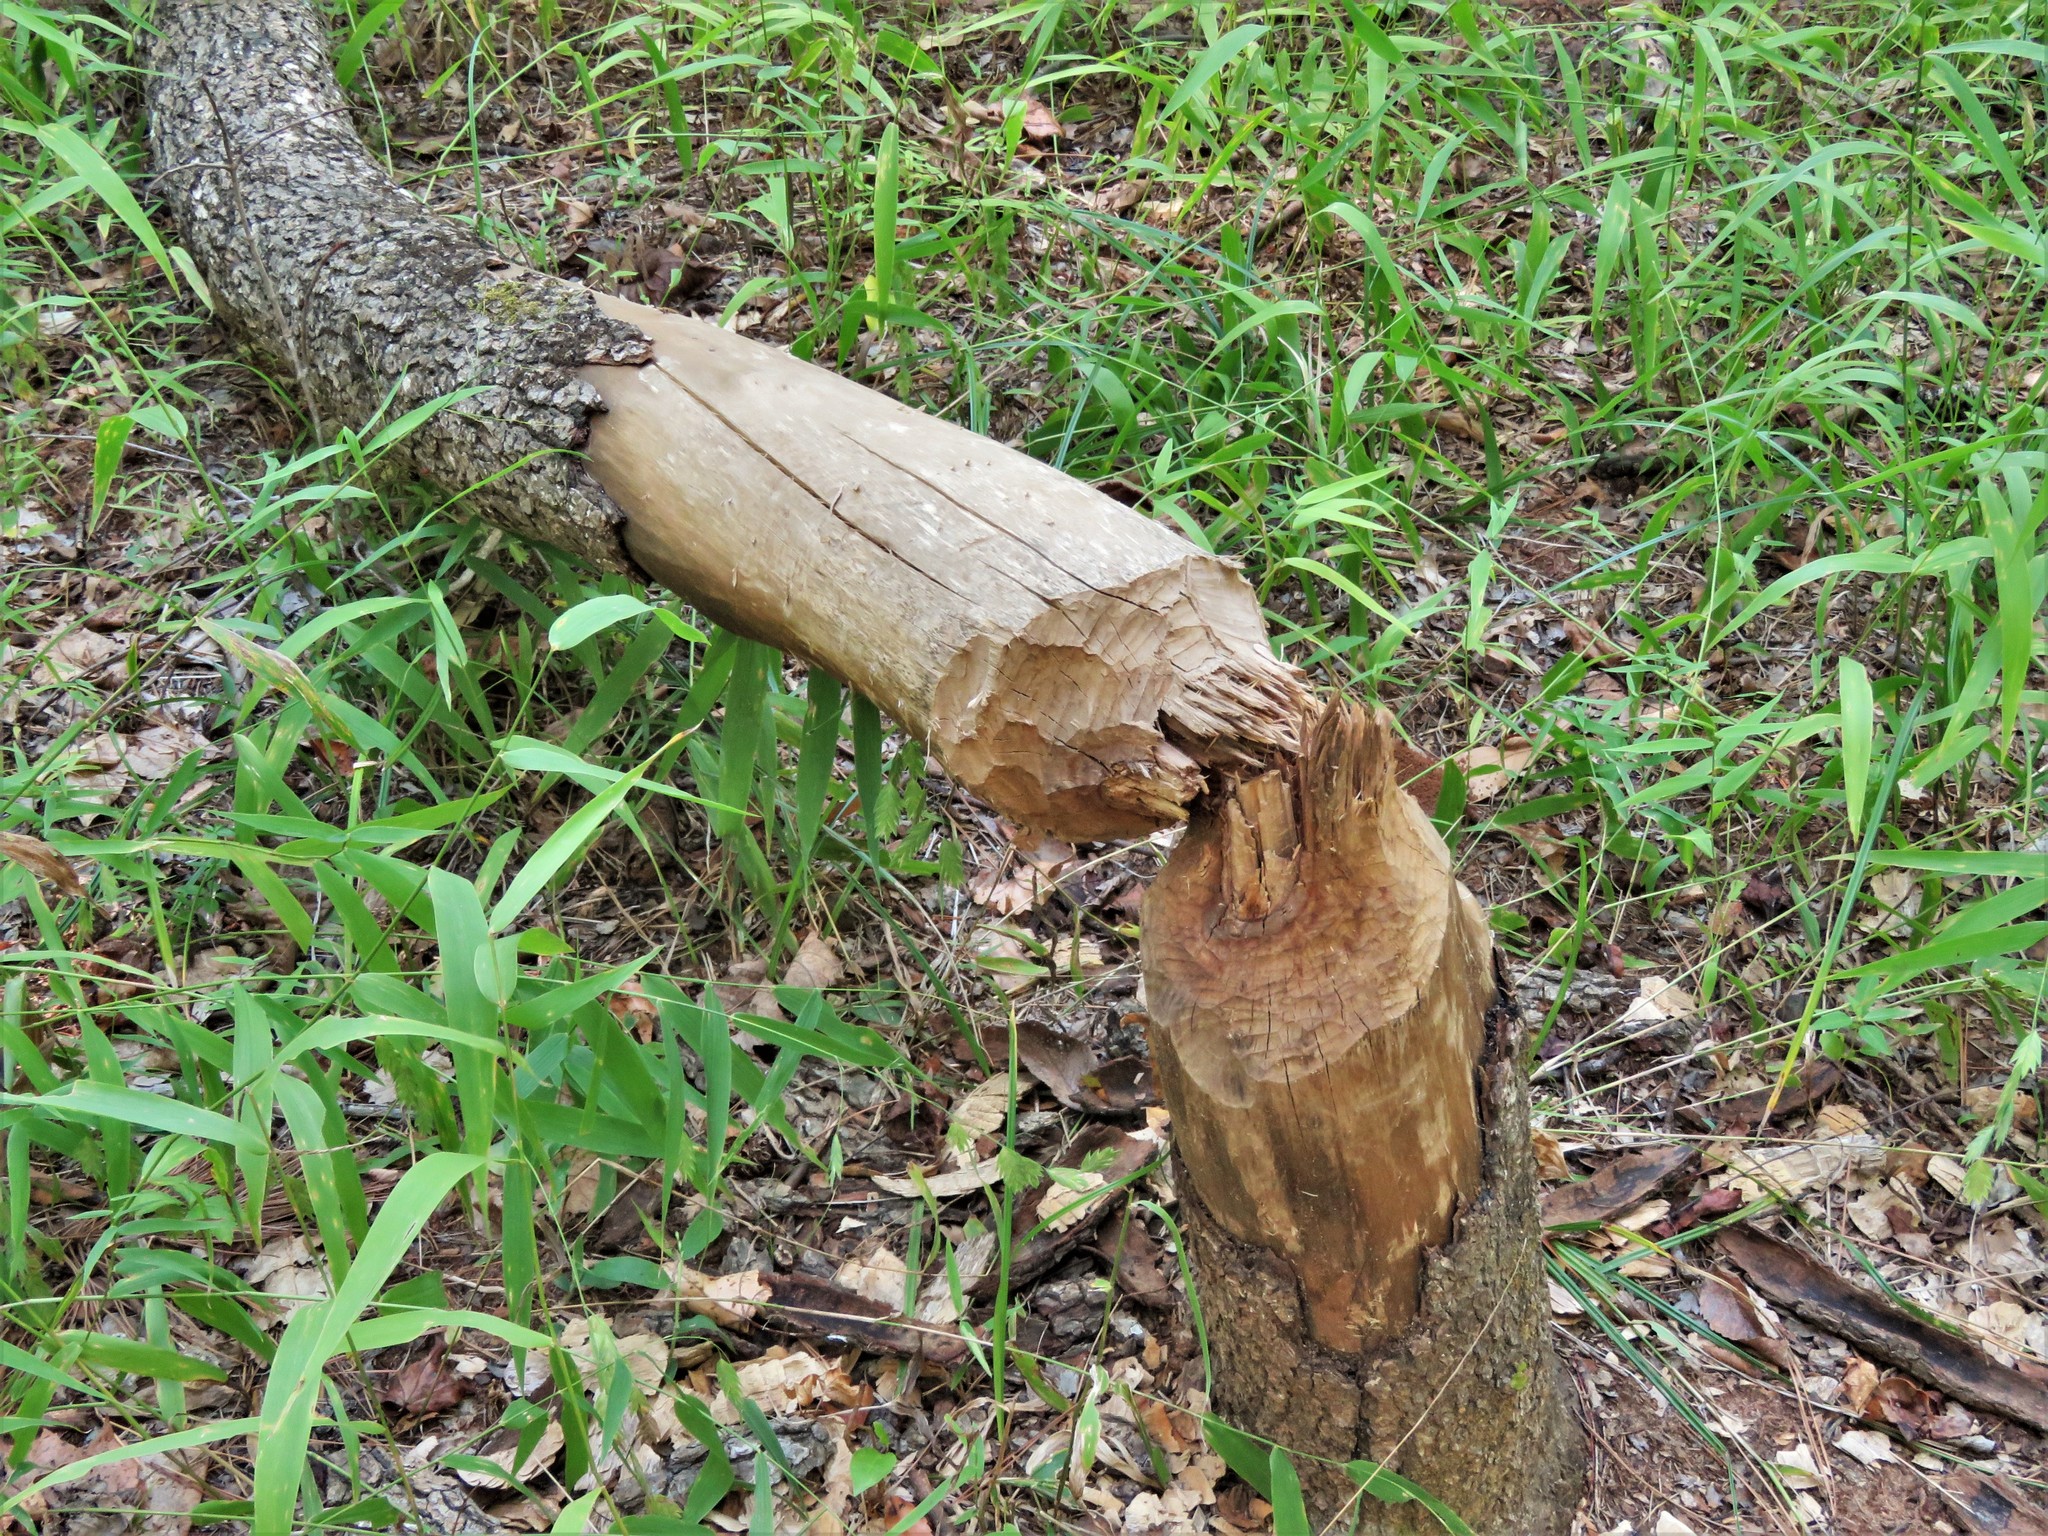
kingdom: Animalia
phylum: Chordata
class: Mammalia
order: Rodentia
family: Castoridae
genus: Castor
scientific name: Castor canadensis
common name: American beaver
